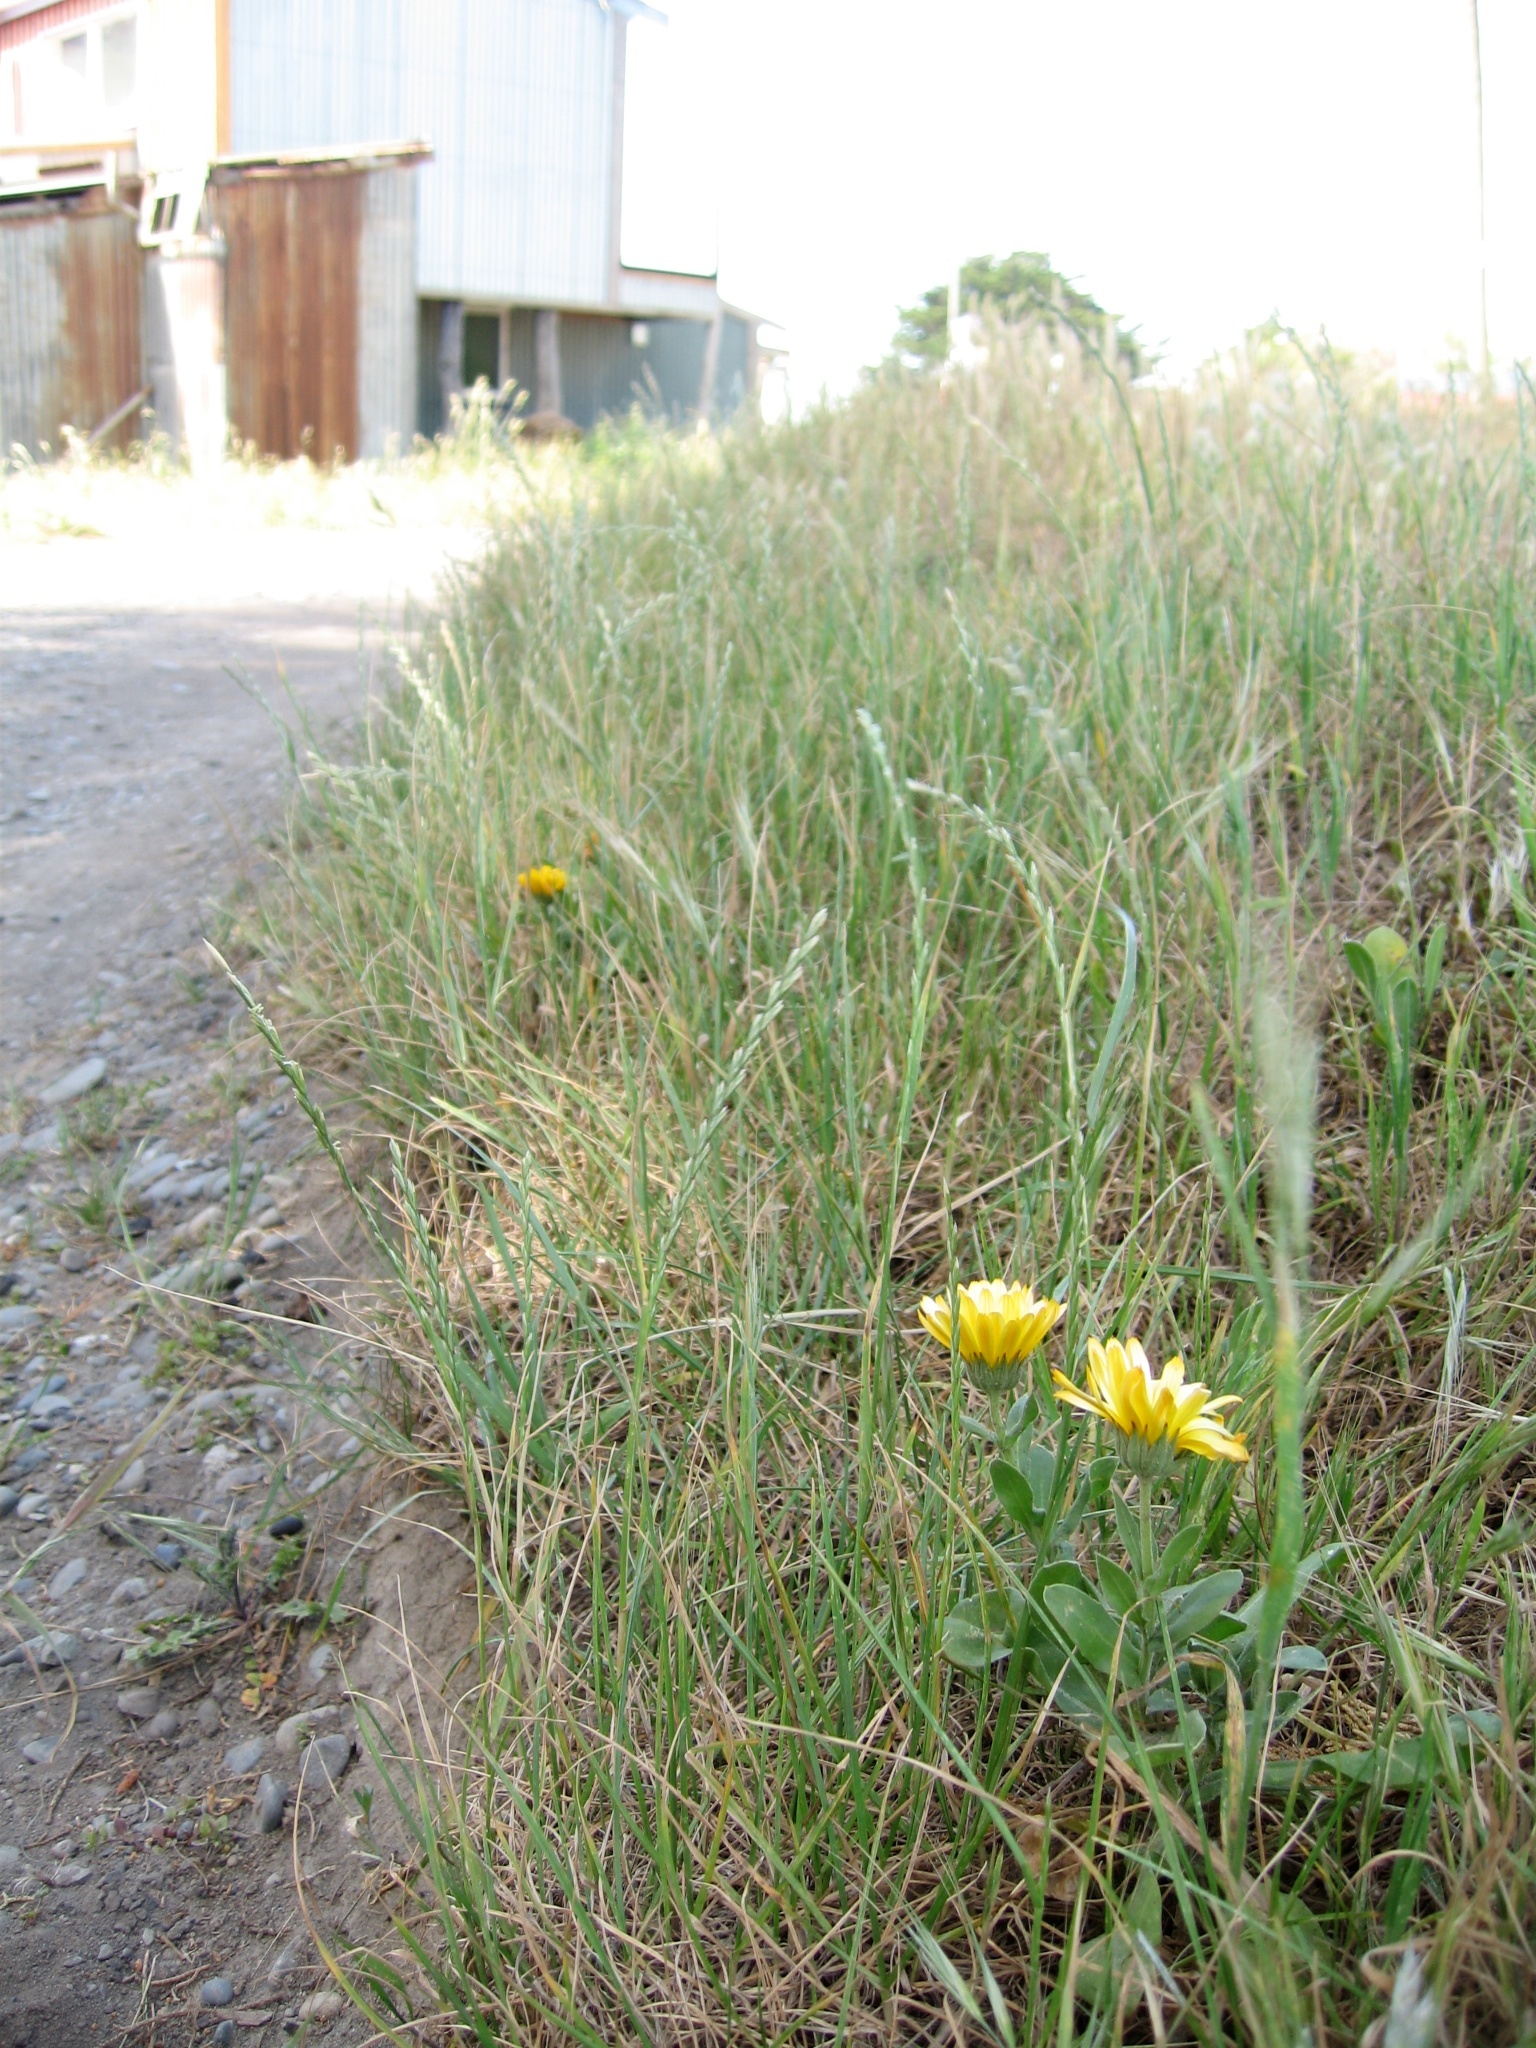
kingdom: Plantae
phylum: Tracheophyta
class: Magnoliopsida
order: Asterales
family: Asteraceae
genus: Calendula
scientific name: Calendula officinalis
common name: Pot marigold
